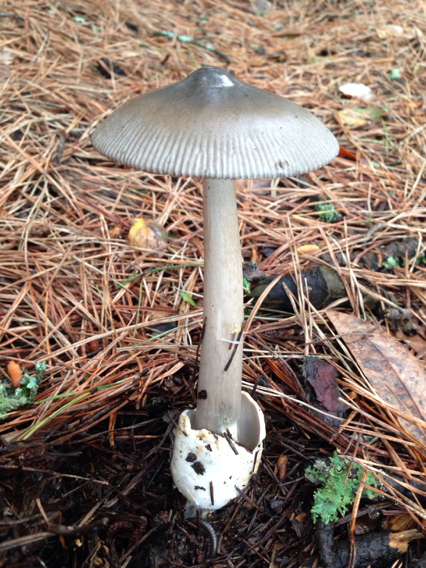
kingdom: Fungi
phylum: Basidiomycota
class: Agaricomycetes
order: Agaricales
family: Amanitaceae
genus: Amanita
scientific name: Amanita pachycolea
